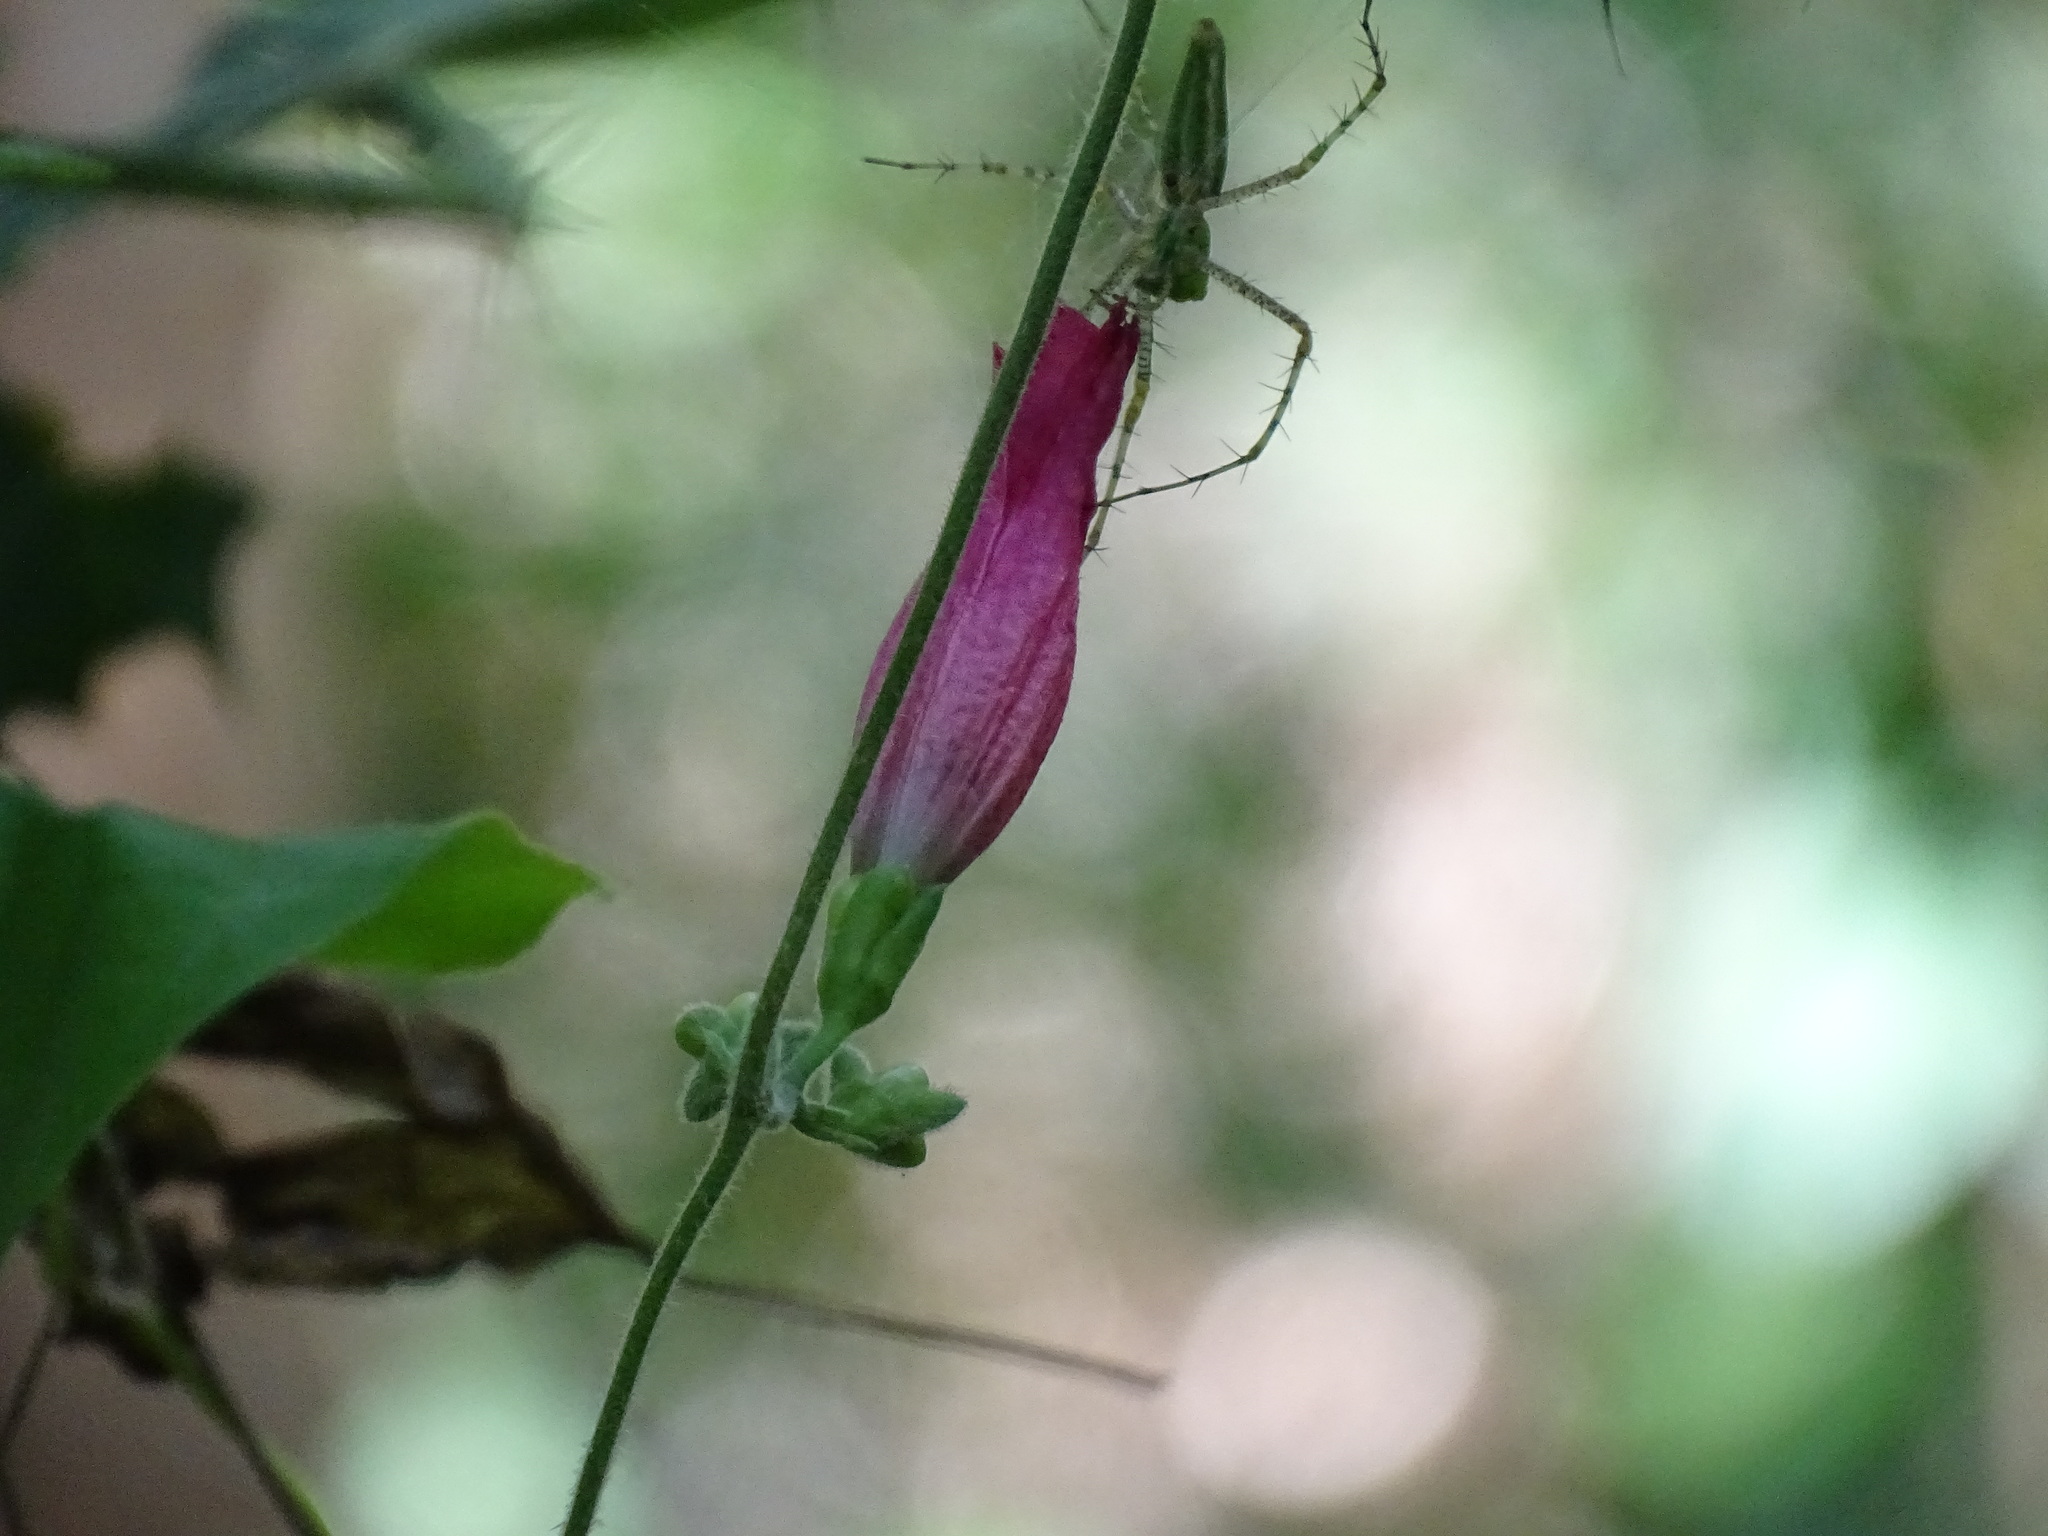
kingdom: Plantae
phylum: Tracheophyta
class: Magnoliopsida
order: Solanales
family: Convolvulaceae
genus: Ipomoea
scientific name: Ipomoea peteri
